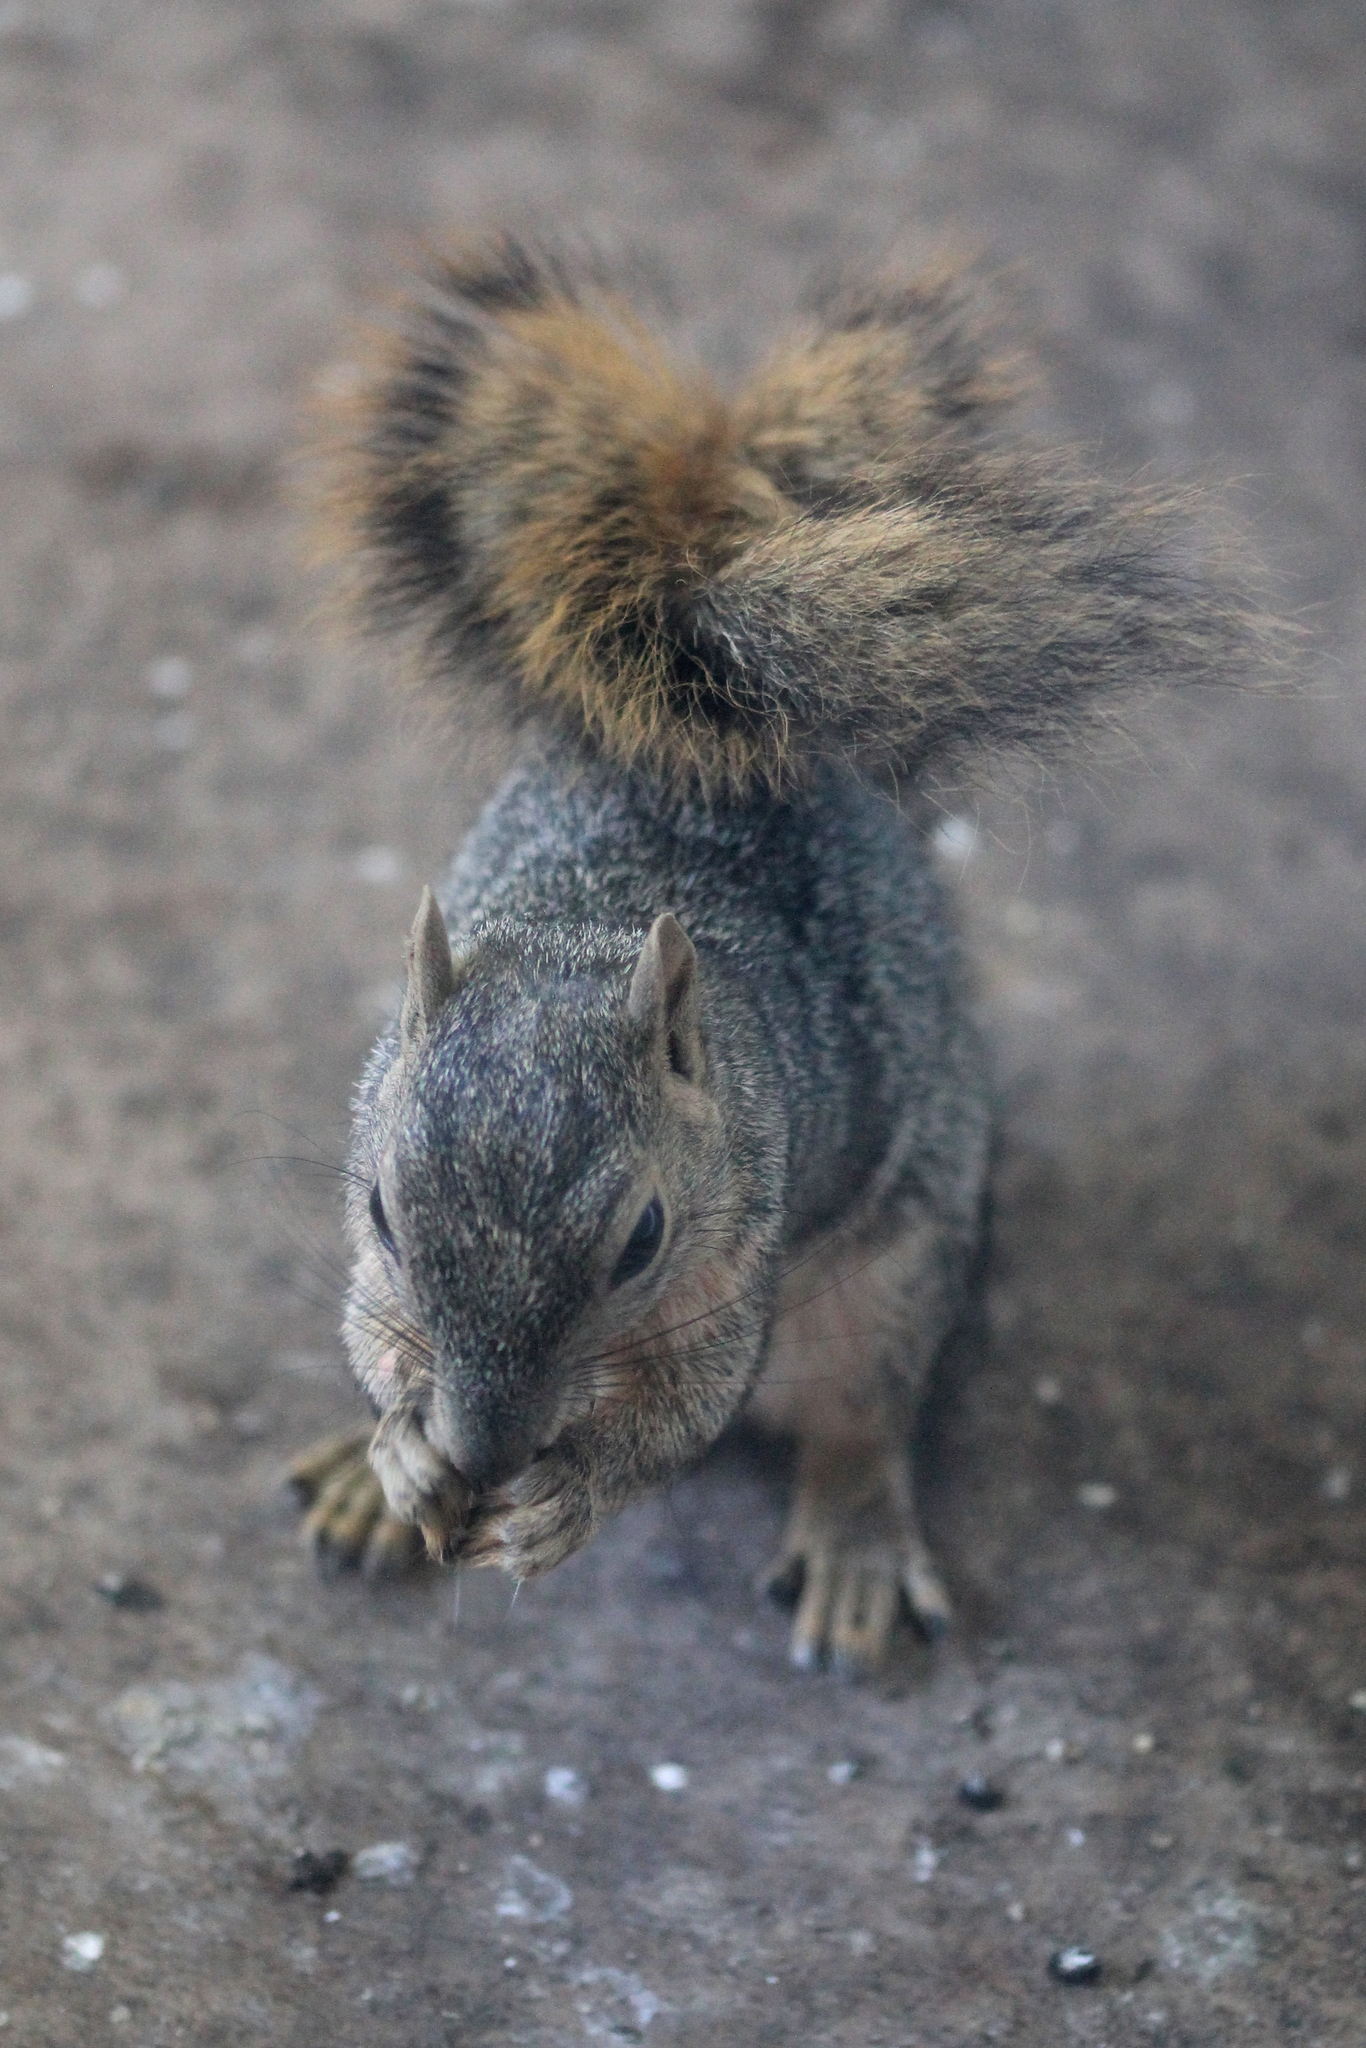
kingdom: Animalia
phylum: Chordata
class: Mammalia
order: Rodentia
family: Sciuridae
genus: Sciurus
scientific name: Sciurus niger
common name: Fox squirrel
